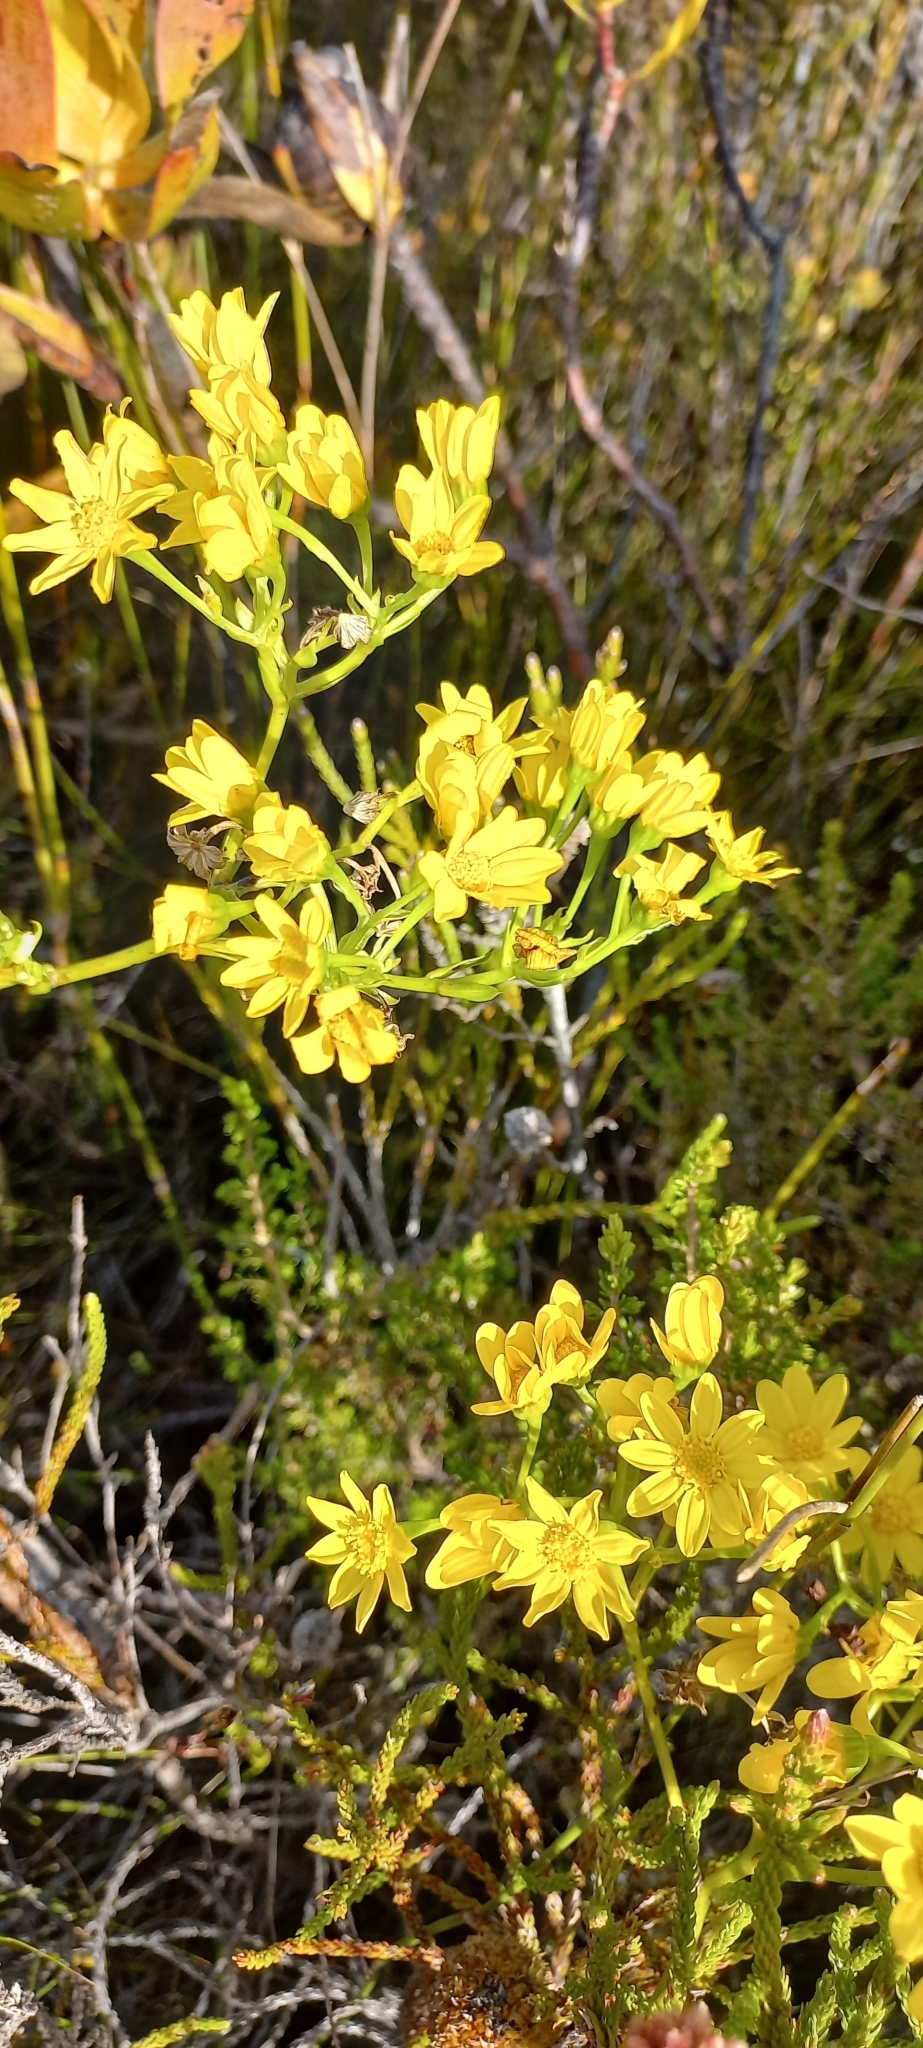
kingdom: Plantae
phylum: Tracheophyta
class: Magnoliopsida
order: Asterales
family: Asteraceae
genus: Othonna
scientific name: Othonna quinquedentata
